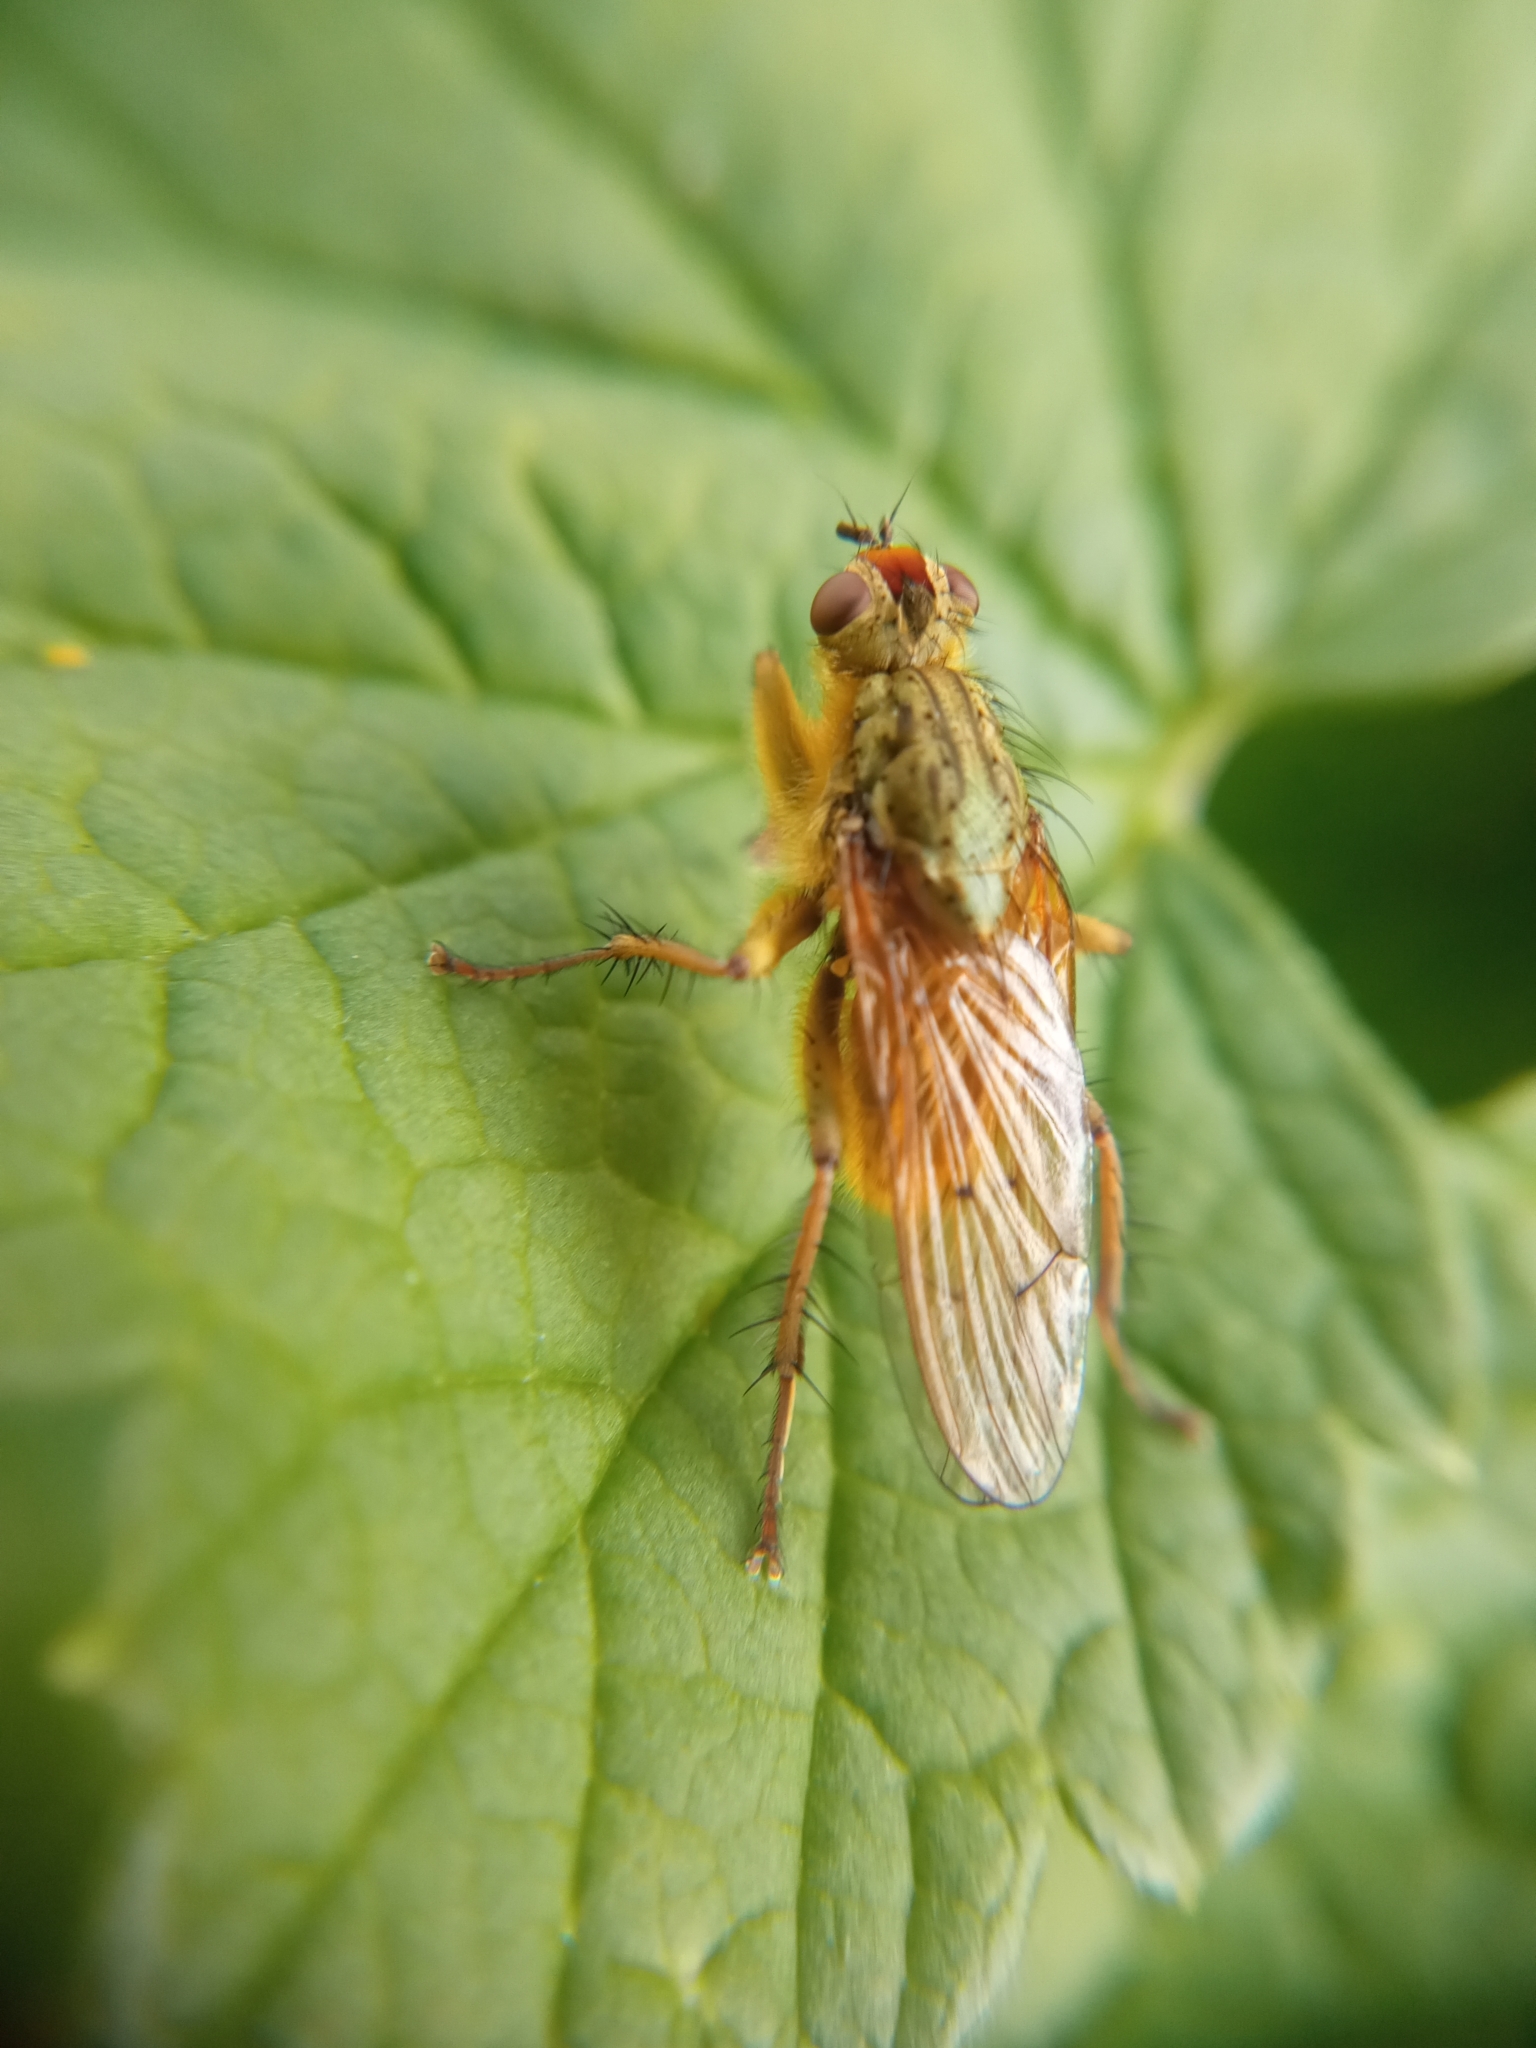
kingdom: Animalia
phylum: Arthropoda
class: Insecta
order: Diptera
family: Scathophagidae
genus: Scathophaga
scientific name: Scathophaga stercoraria
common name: Yellow dung fly
